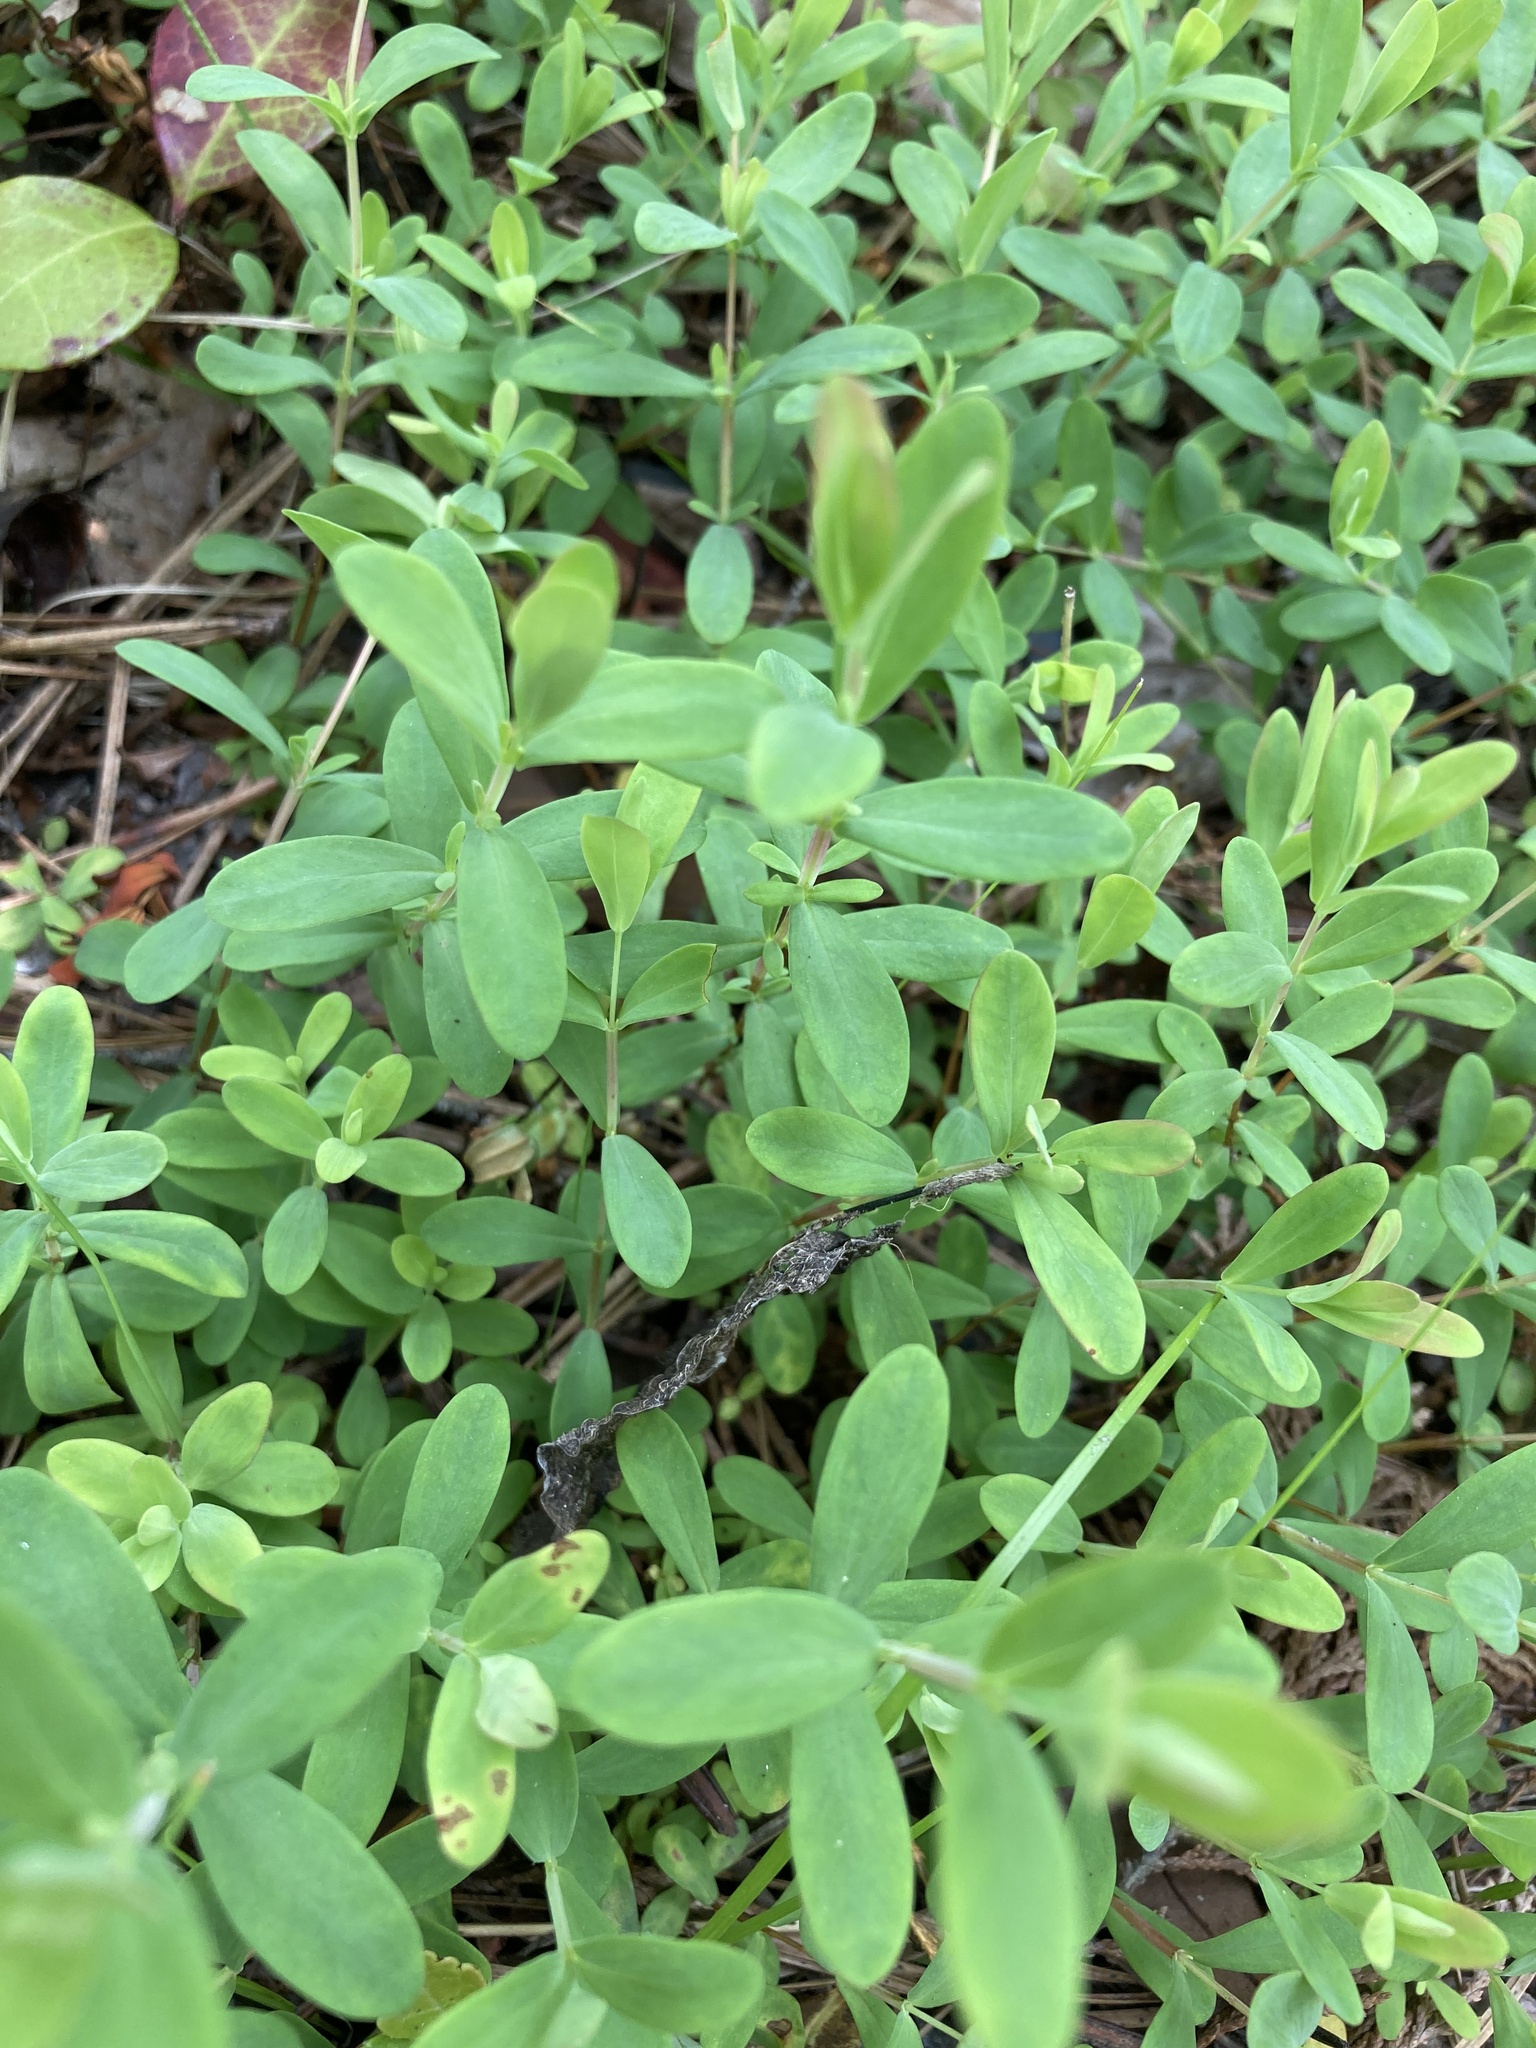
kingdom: Plantae
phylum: Tracheophyta
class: Magnoliopsida
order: Malpighiales
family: Hypericaceae
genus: Hypericum
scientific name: Hypericum hypericoides
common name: St. andrew's cross
